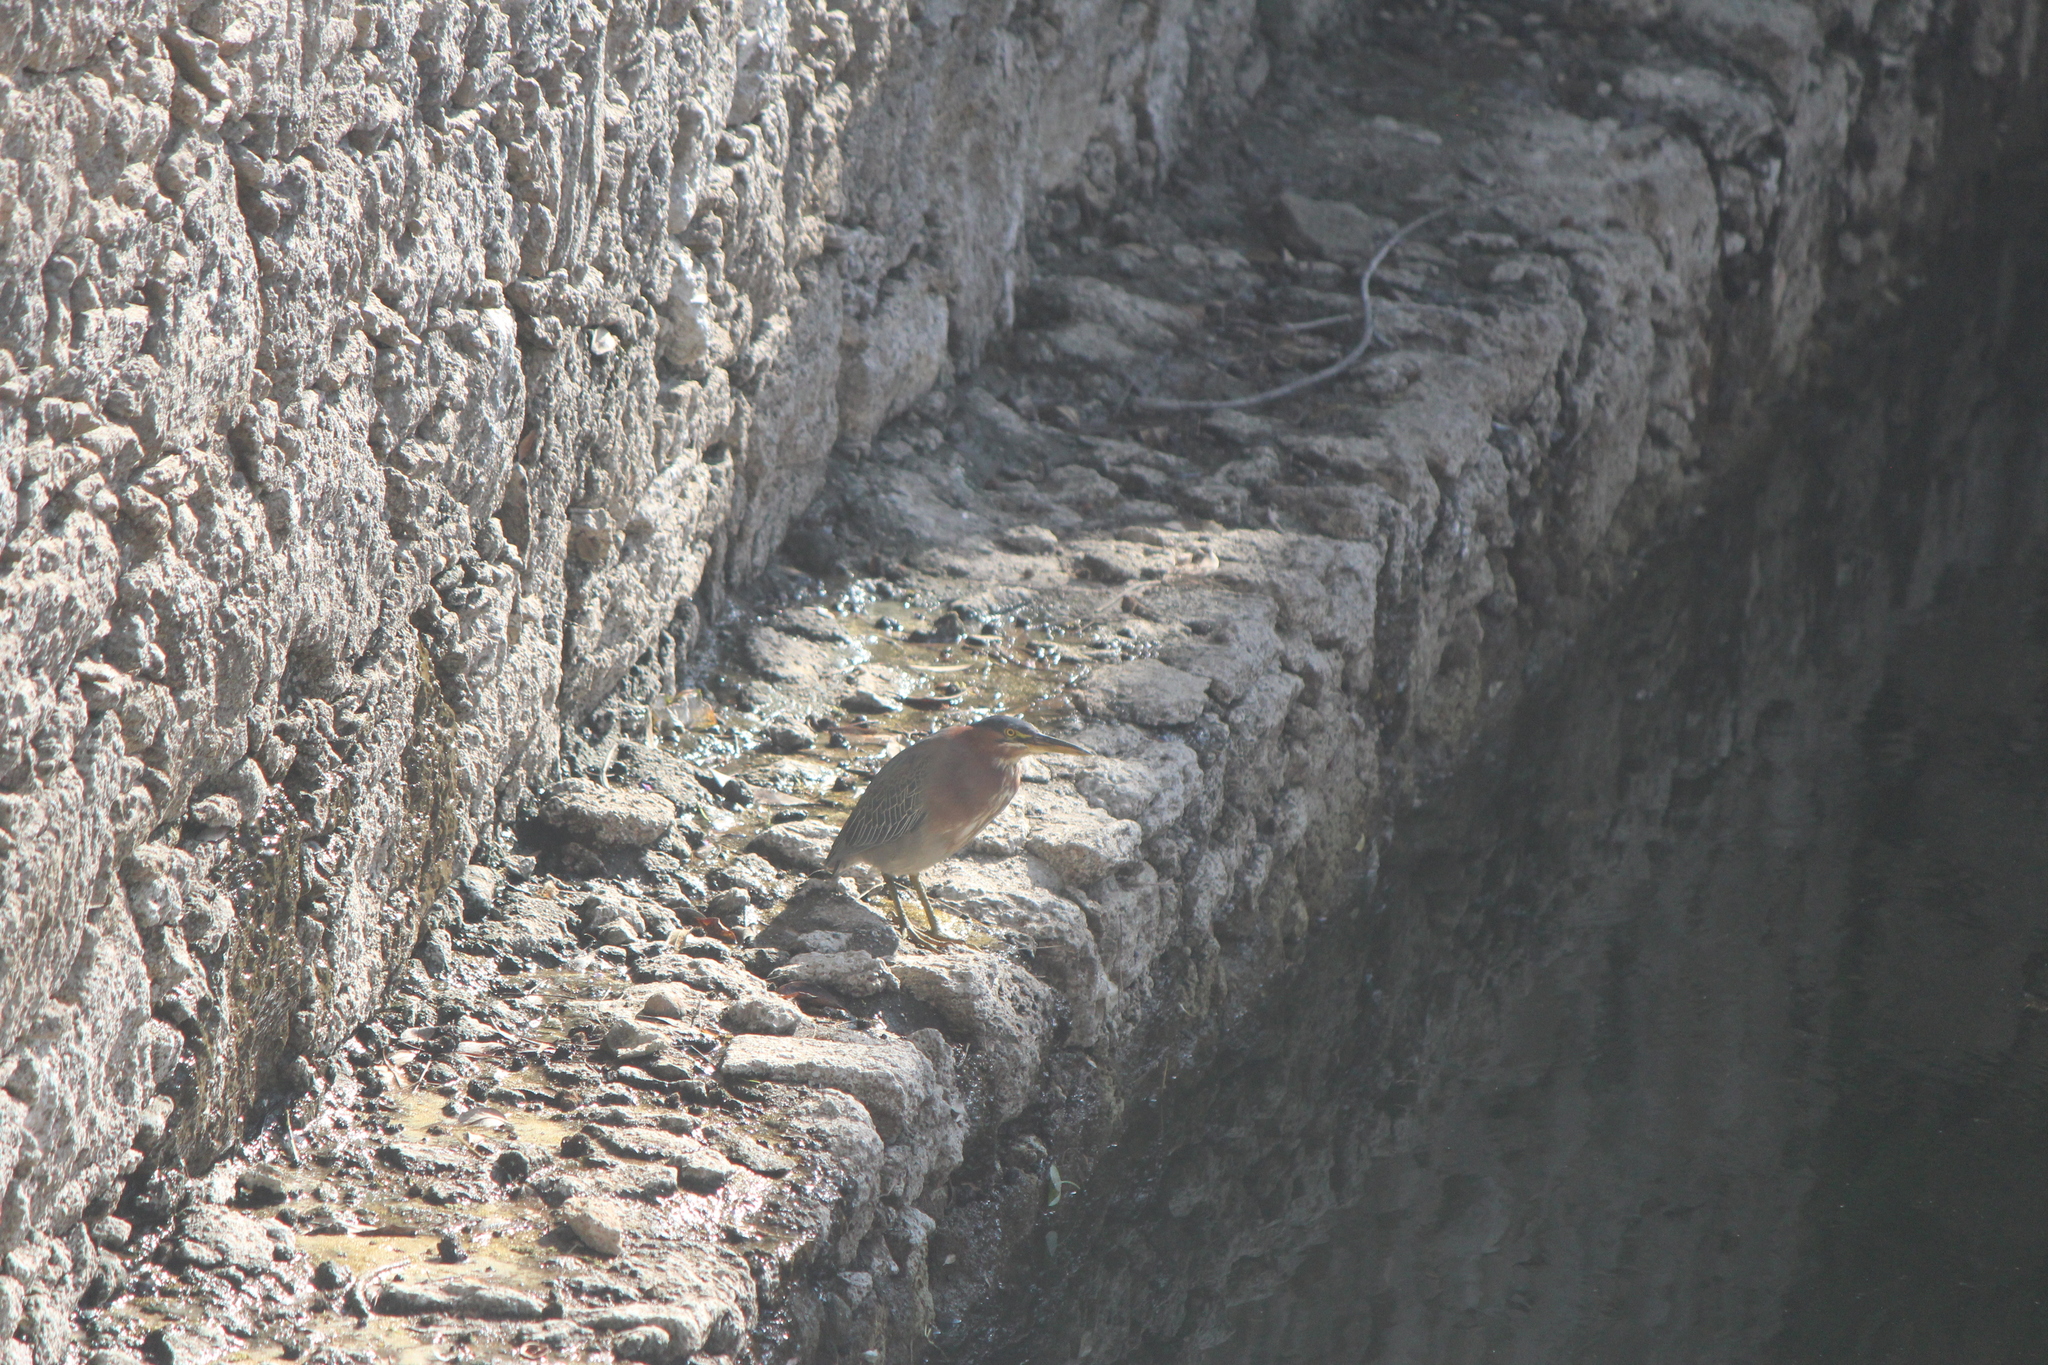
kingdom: Animalia
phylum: Chordata
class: Aves
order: Pelecaniformes
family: Ardeidae
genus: Butorides
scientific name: Butorides virescens
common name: Green heron
